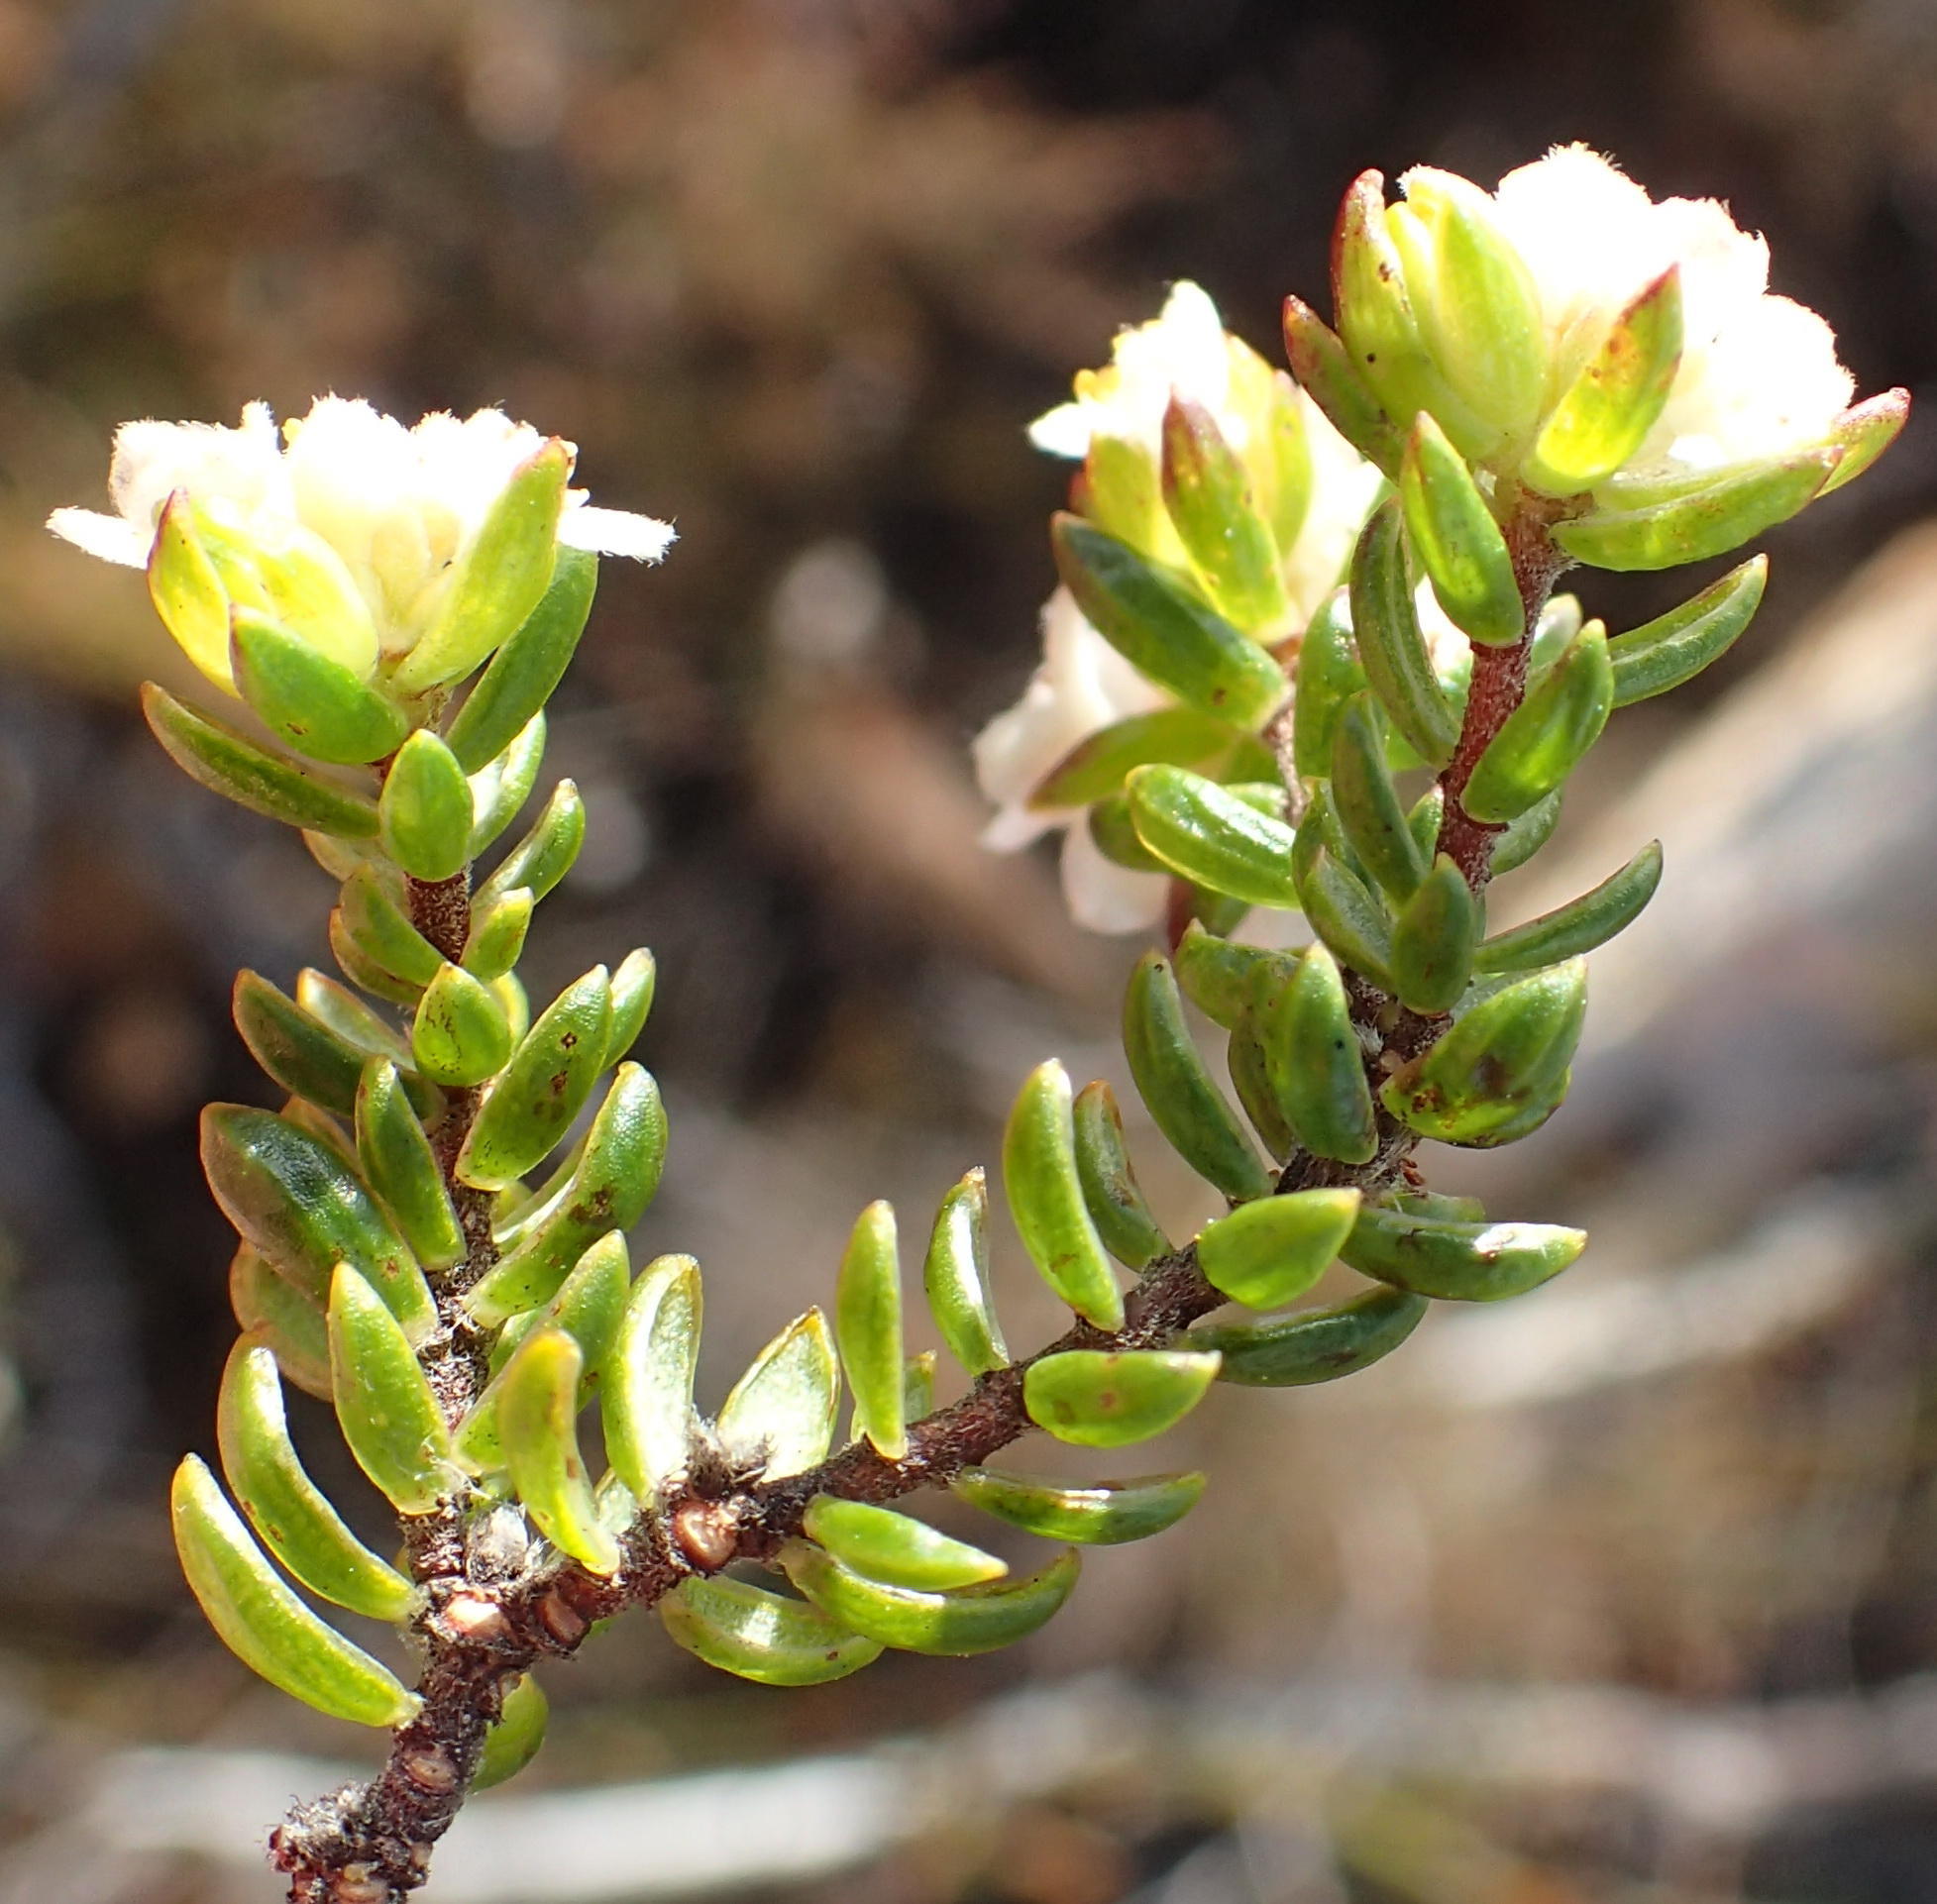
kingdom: Plantae
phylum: Tracheophyta
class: Magnoliopsida
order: Malvales
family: Thymelaeaceae
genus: Lachnaea
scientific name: Lachnaea sociorum
